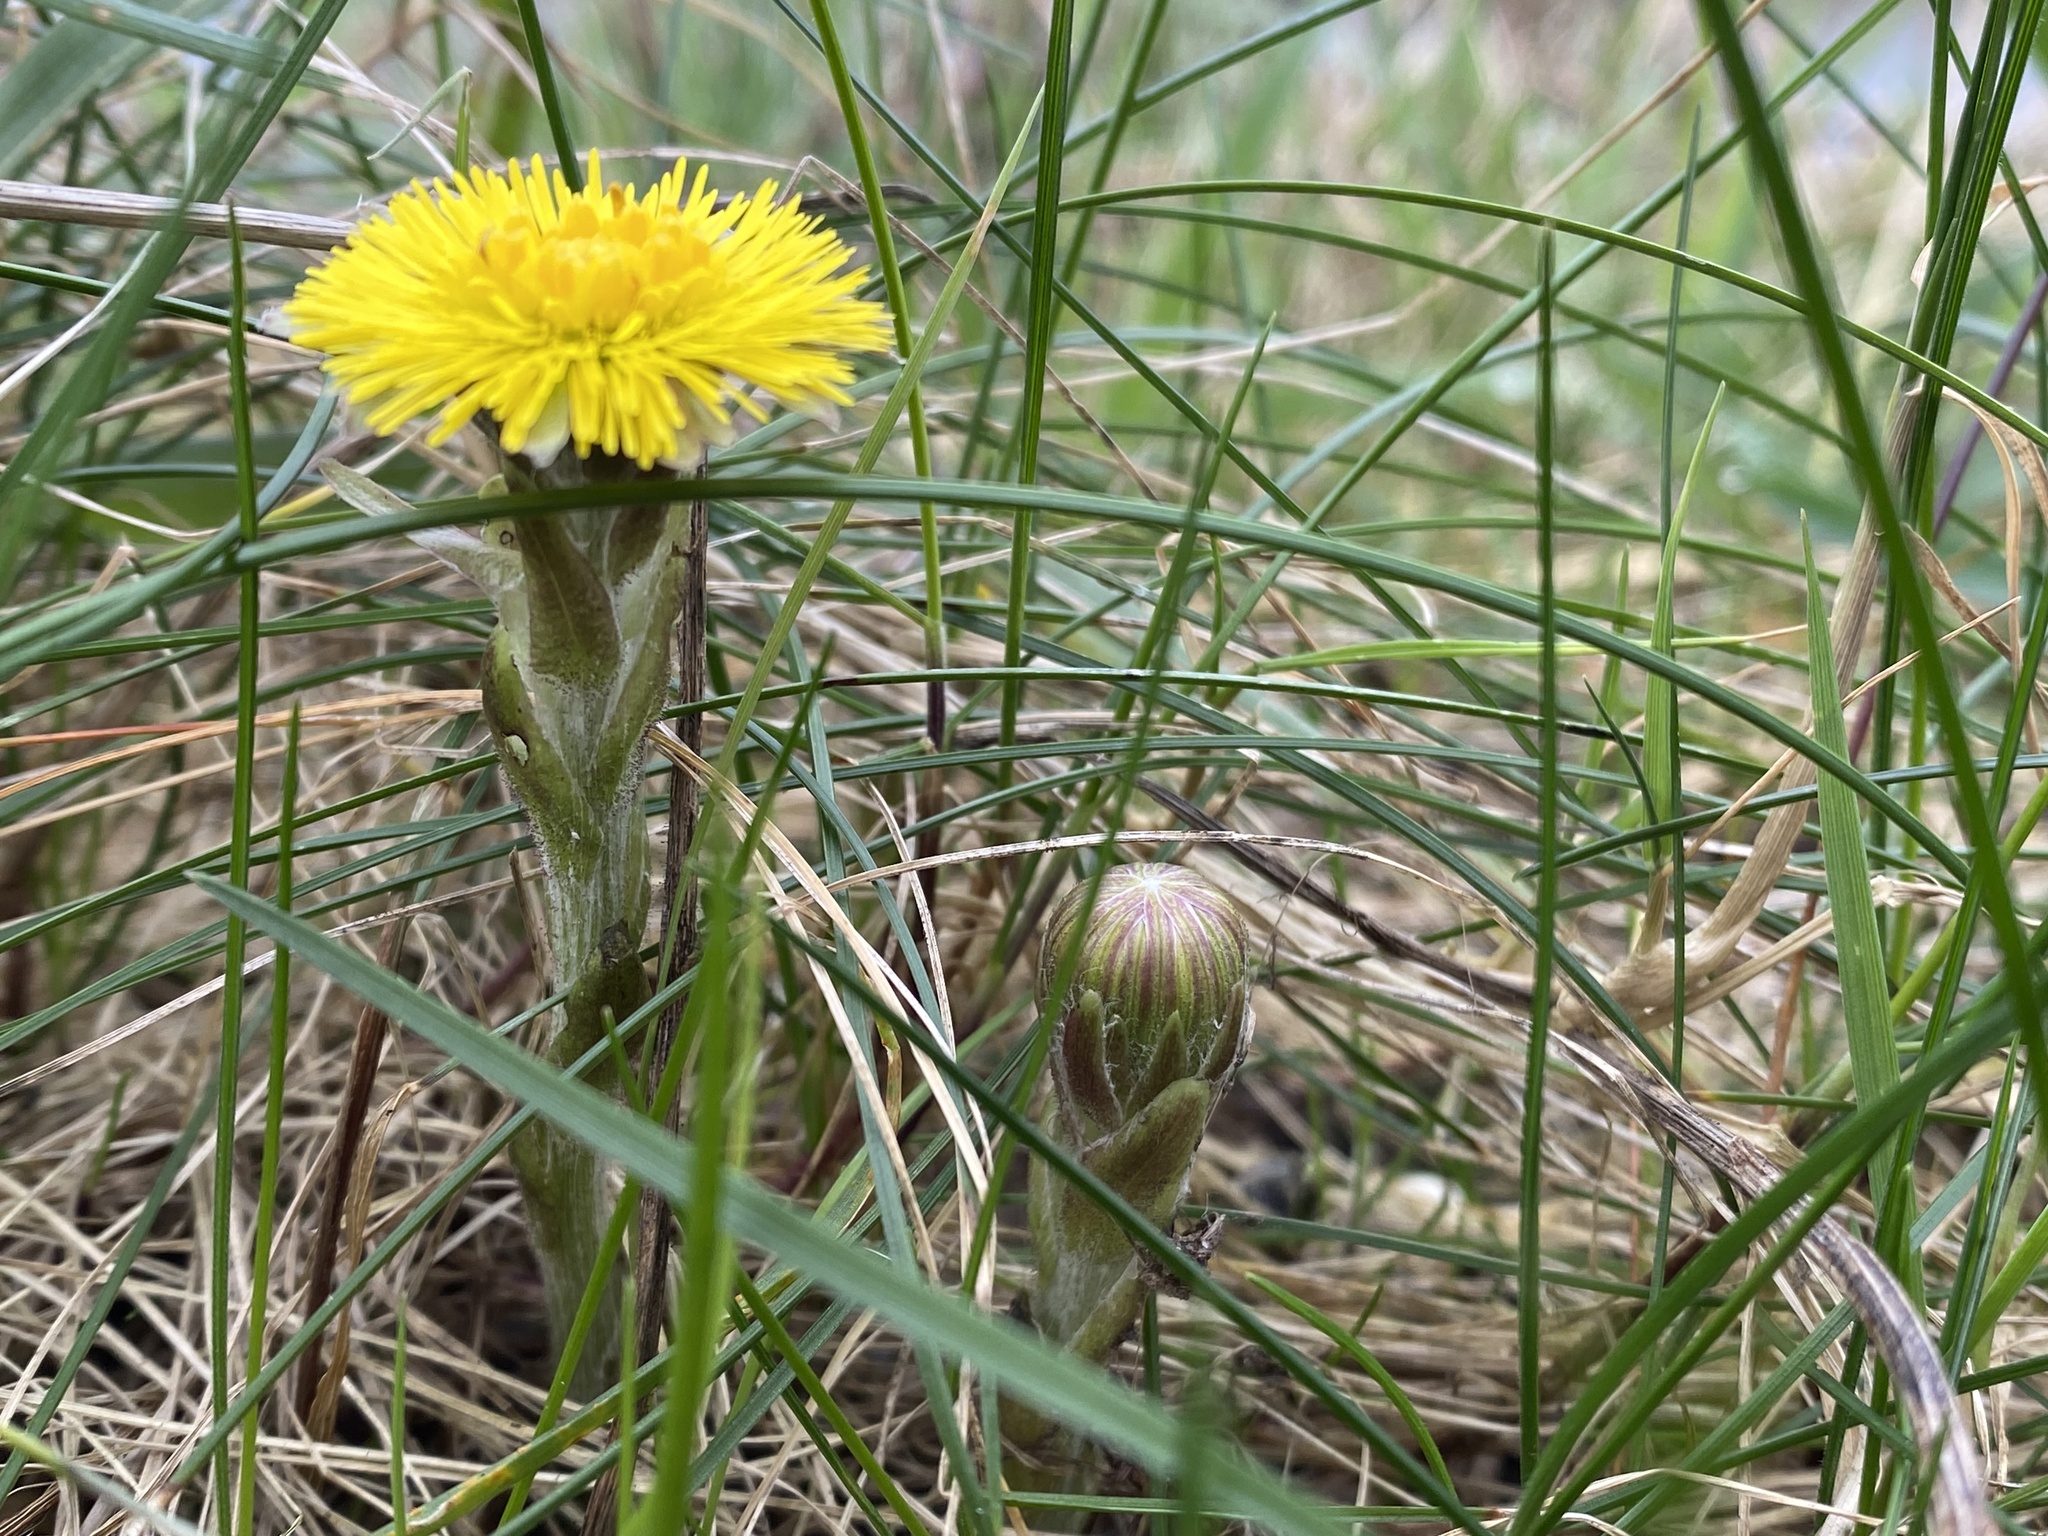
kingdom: Plantae
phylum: Tracheophyta
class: Magnoliopsida
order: Asterales
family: Asteraceae
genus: Tussilago
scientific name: Tussilago farfara
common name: Coltsfoot
